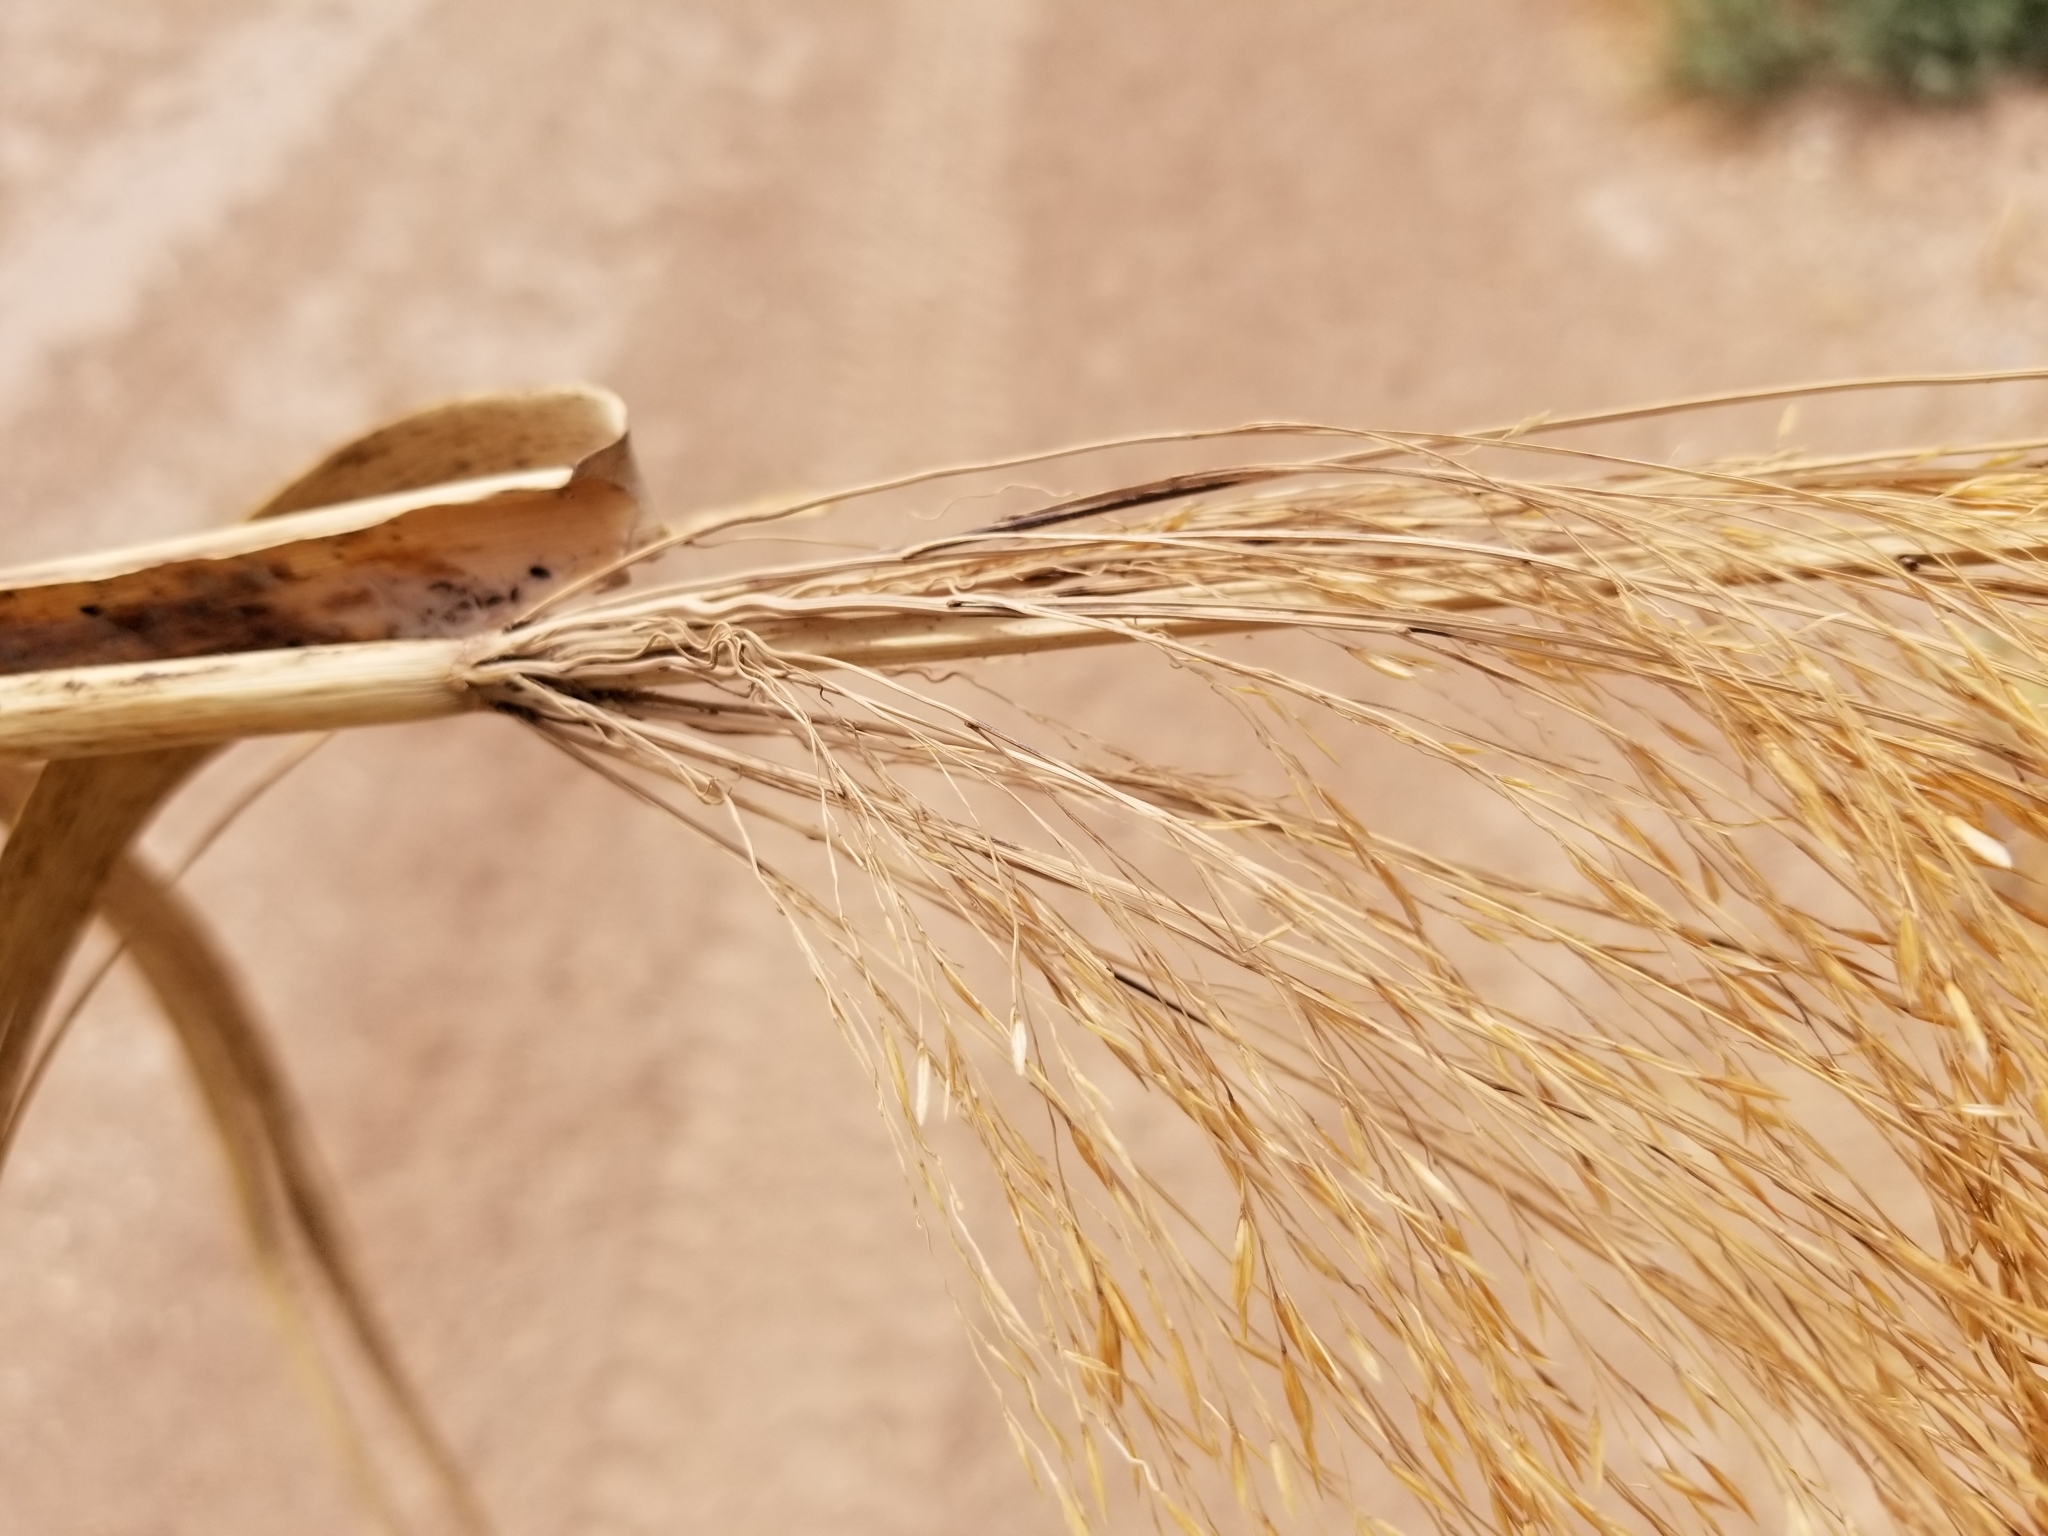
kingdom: Plantae
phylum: Tracheophyta
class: Liliopsida
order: Poales
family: Poaceae
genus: Phragmites
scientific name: Phragmites australis
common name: Common reed
